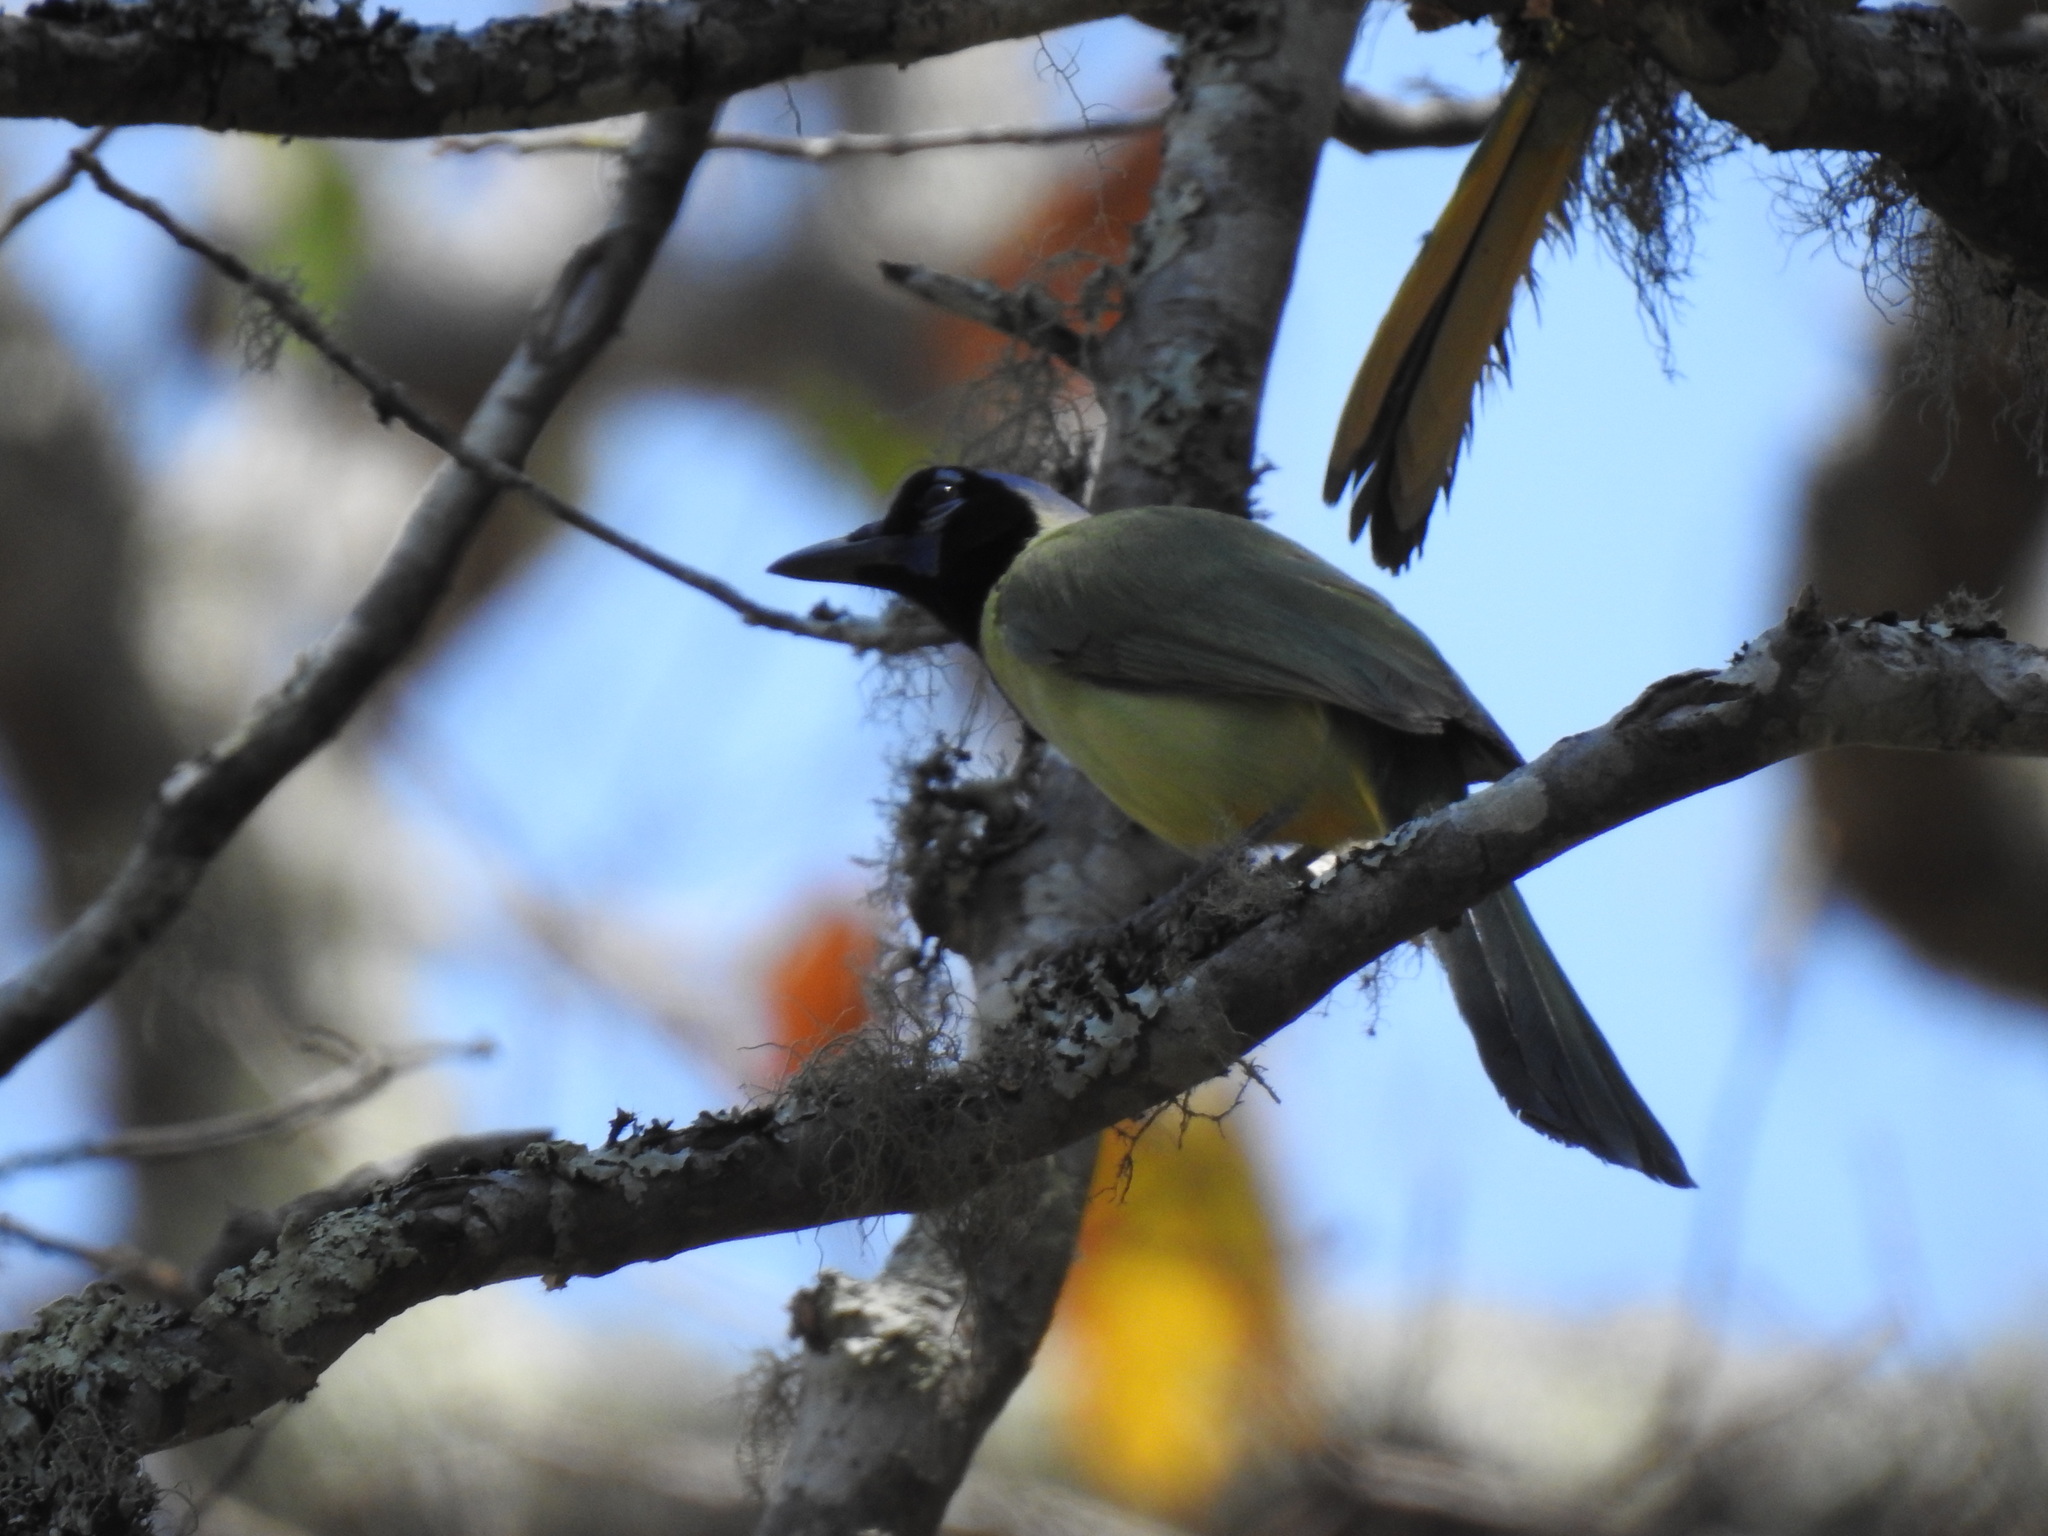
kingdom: Animalia
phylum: Chordata
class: Aves
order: Passeriformes
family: Corvidae
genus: Cyanocorax
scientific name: Cyanocorax yncas
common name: Green jay
